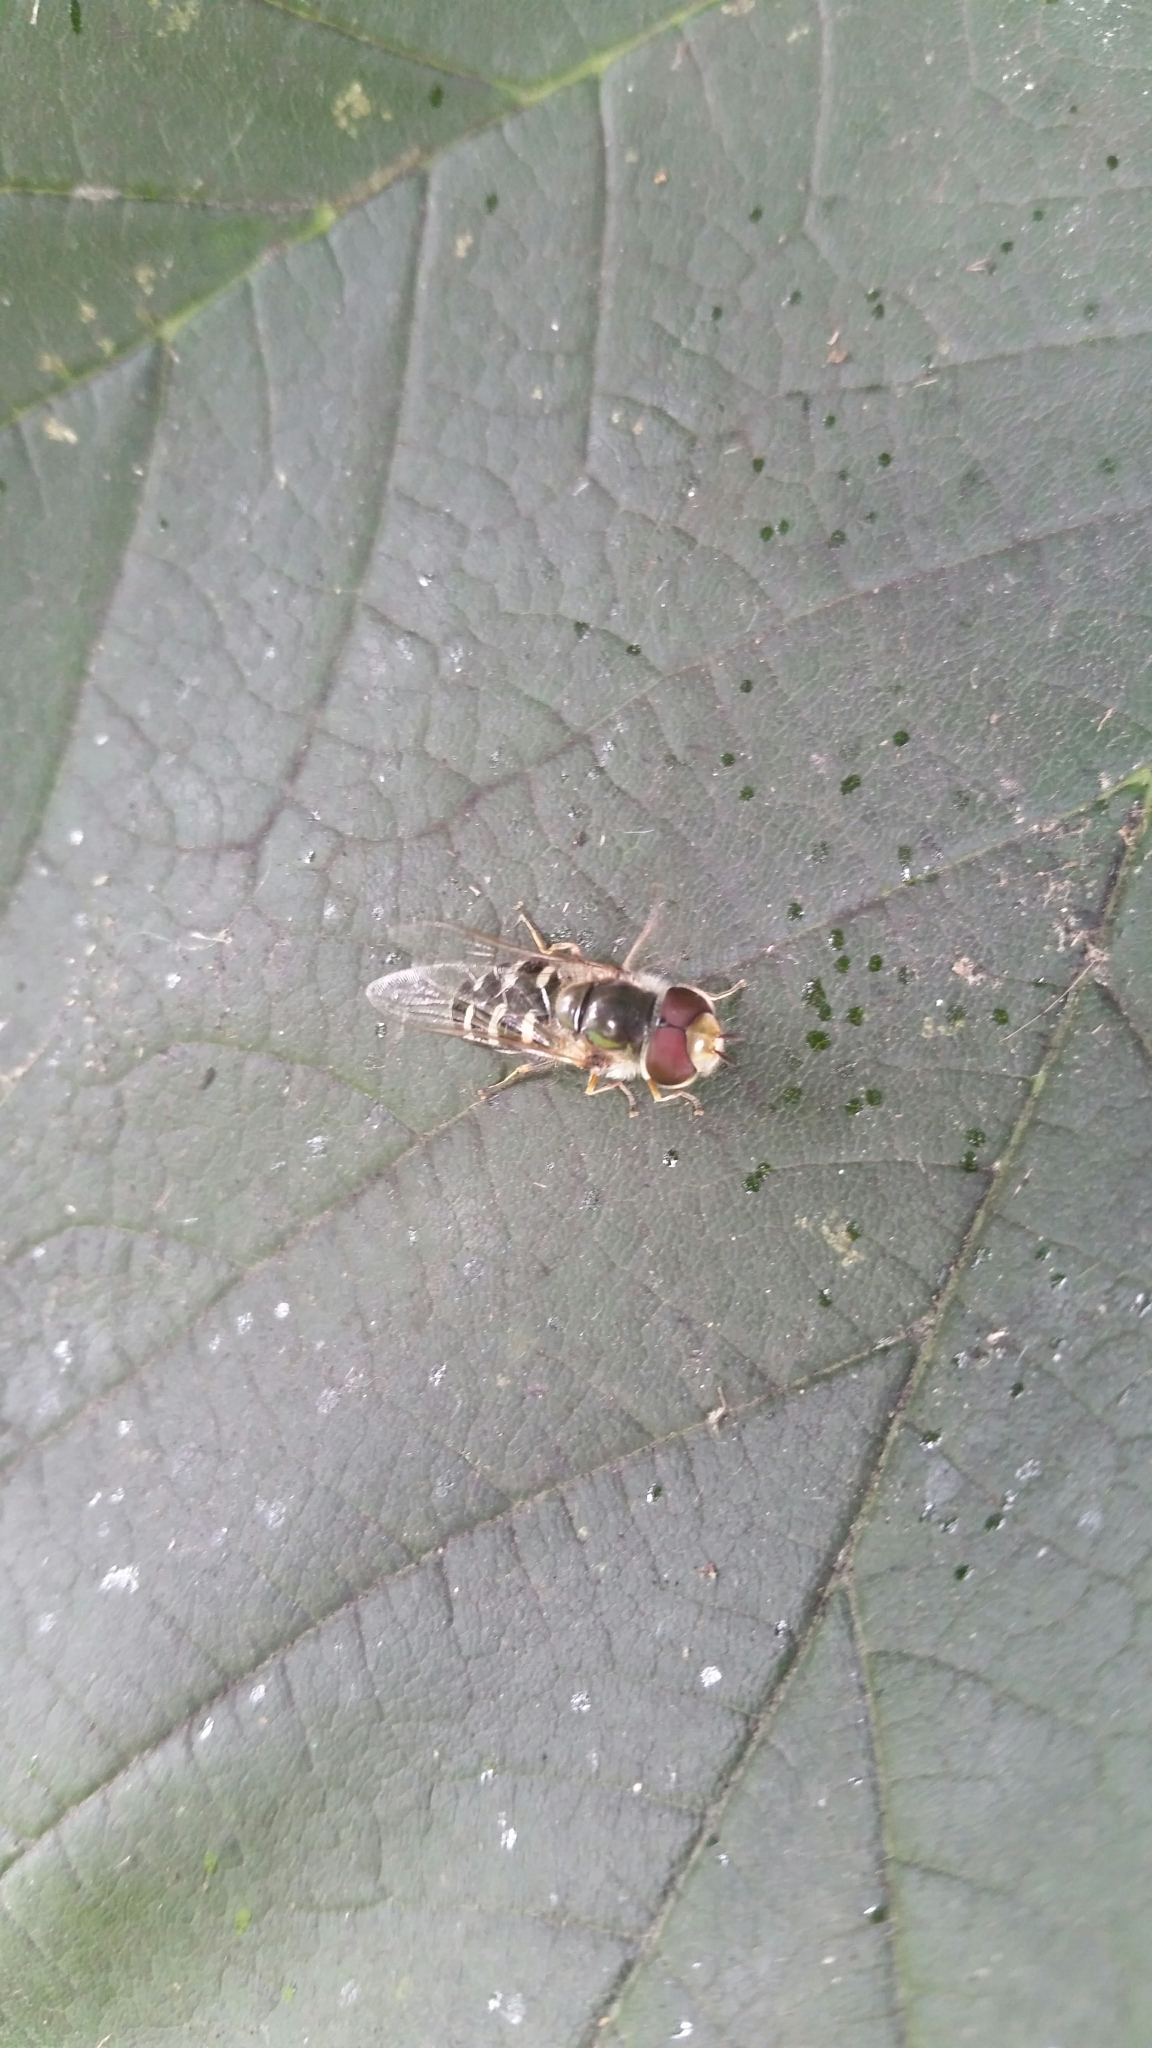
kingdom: Animalia
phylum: Arthropoda
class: Insecta
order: Diptera
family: Syrphidae
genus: Scaeva
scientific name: Scaeva pyrastri
